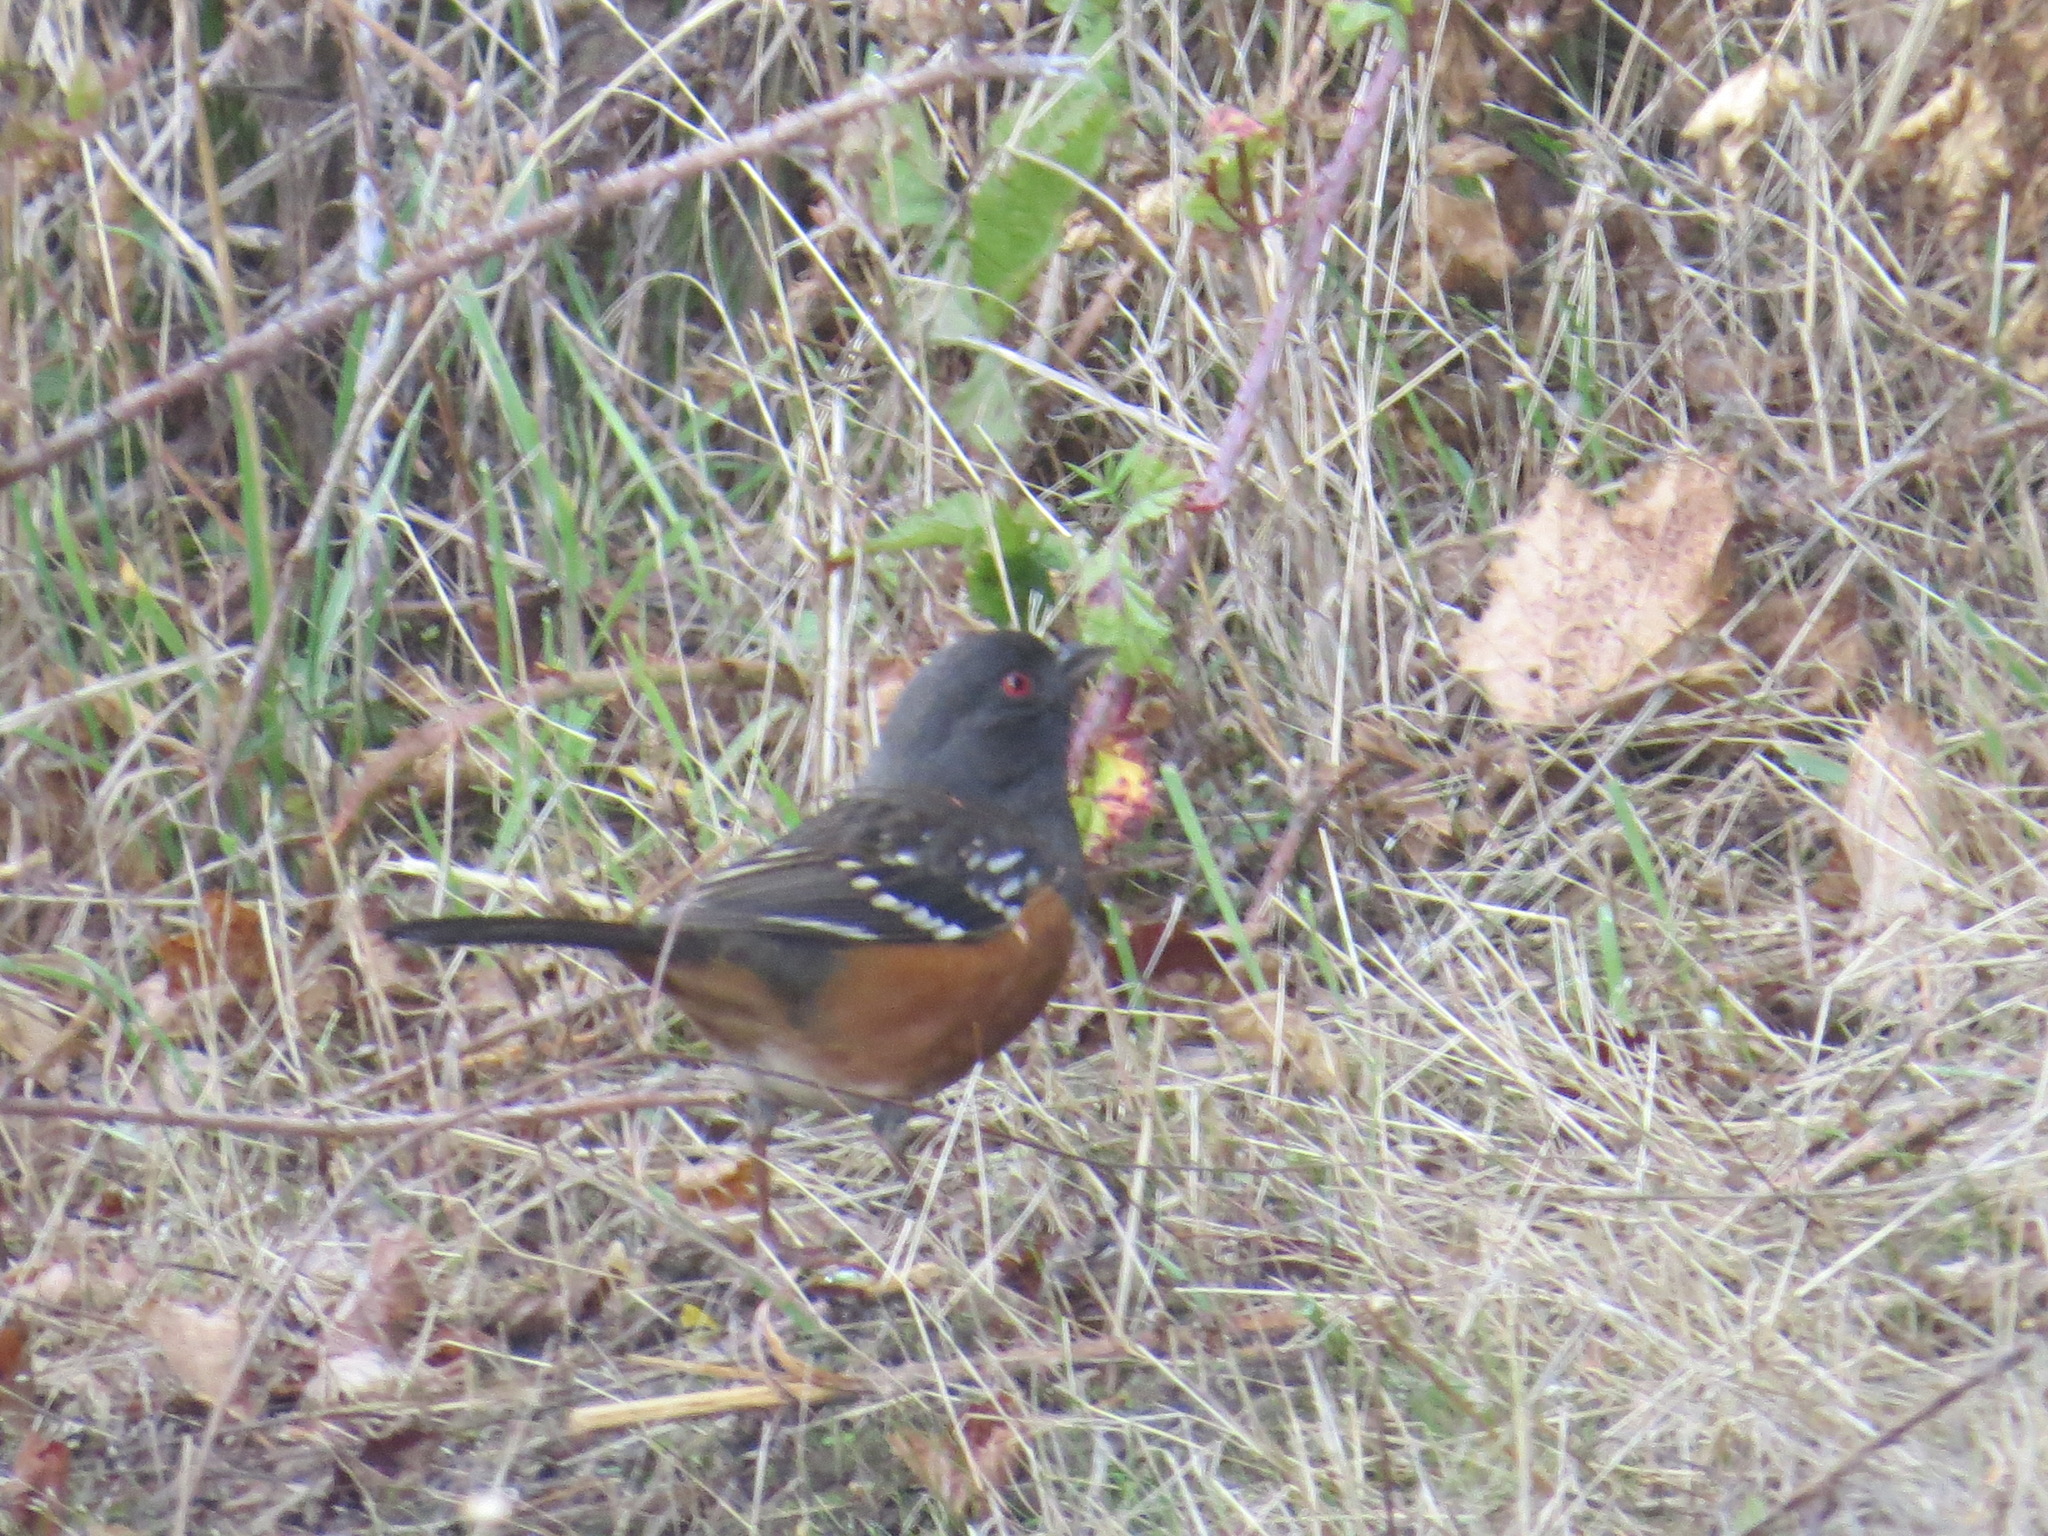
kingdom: Animalia
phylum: Chordata
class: Aves
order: Passeriformes
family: Passerellidae
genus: Pipilo
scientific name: Pipilo maculatus
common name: Spotted towhee
